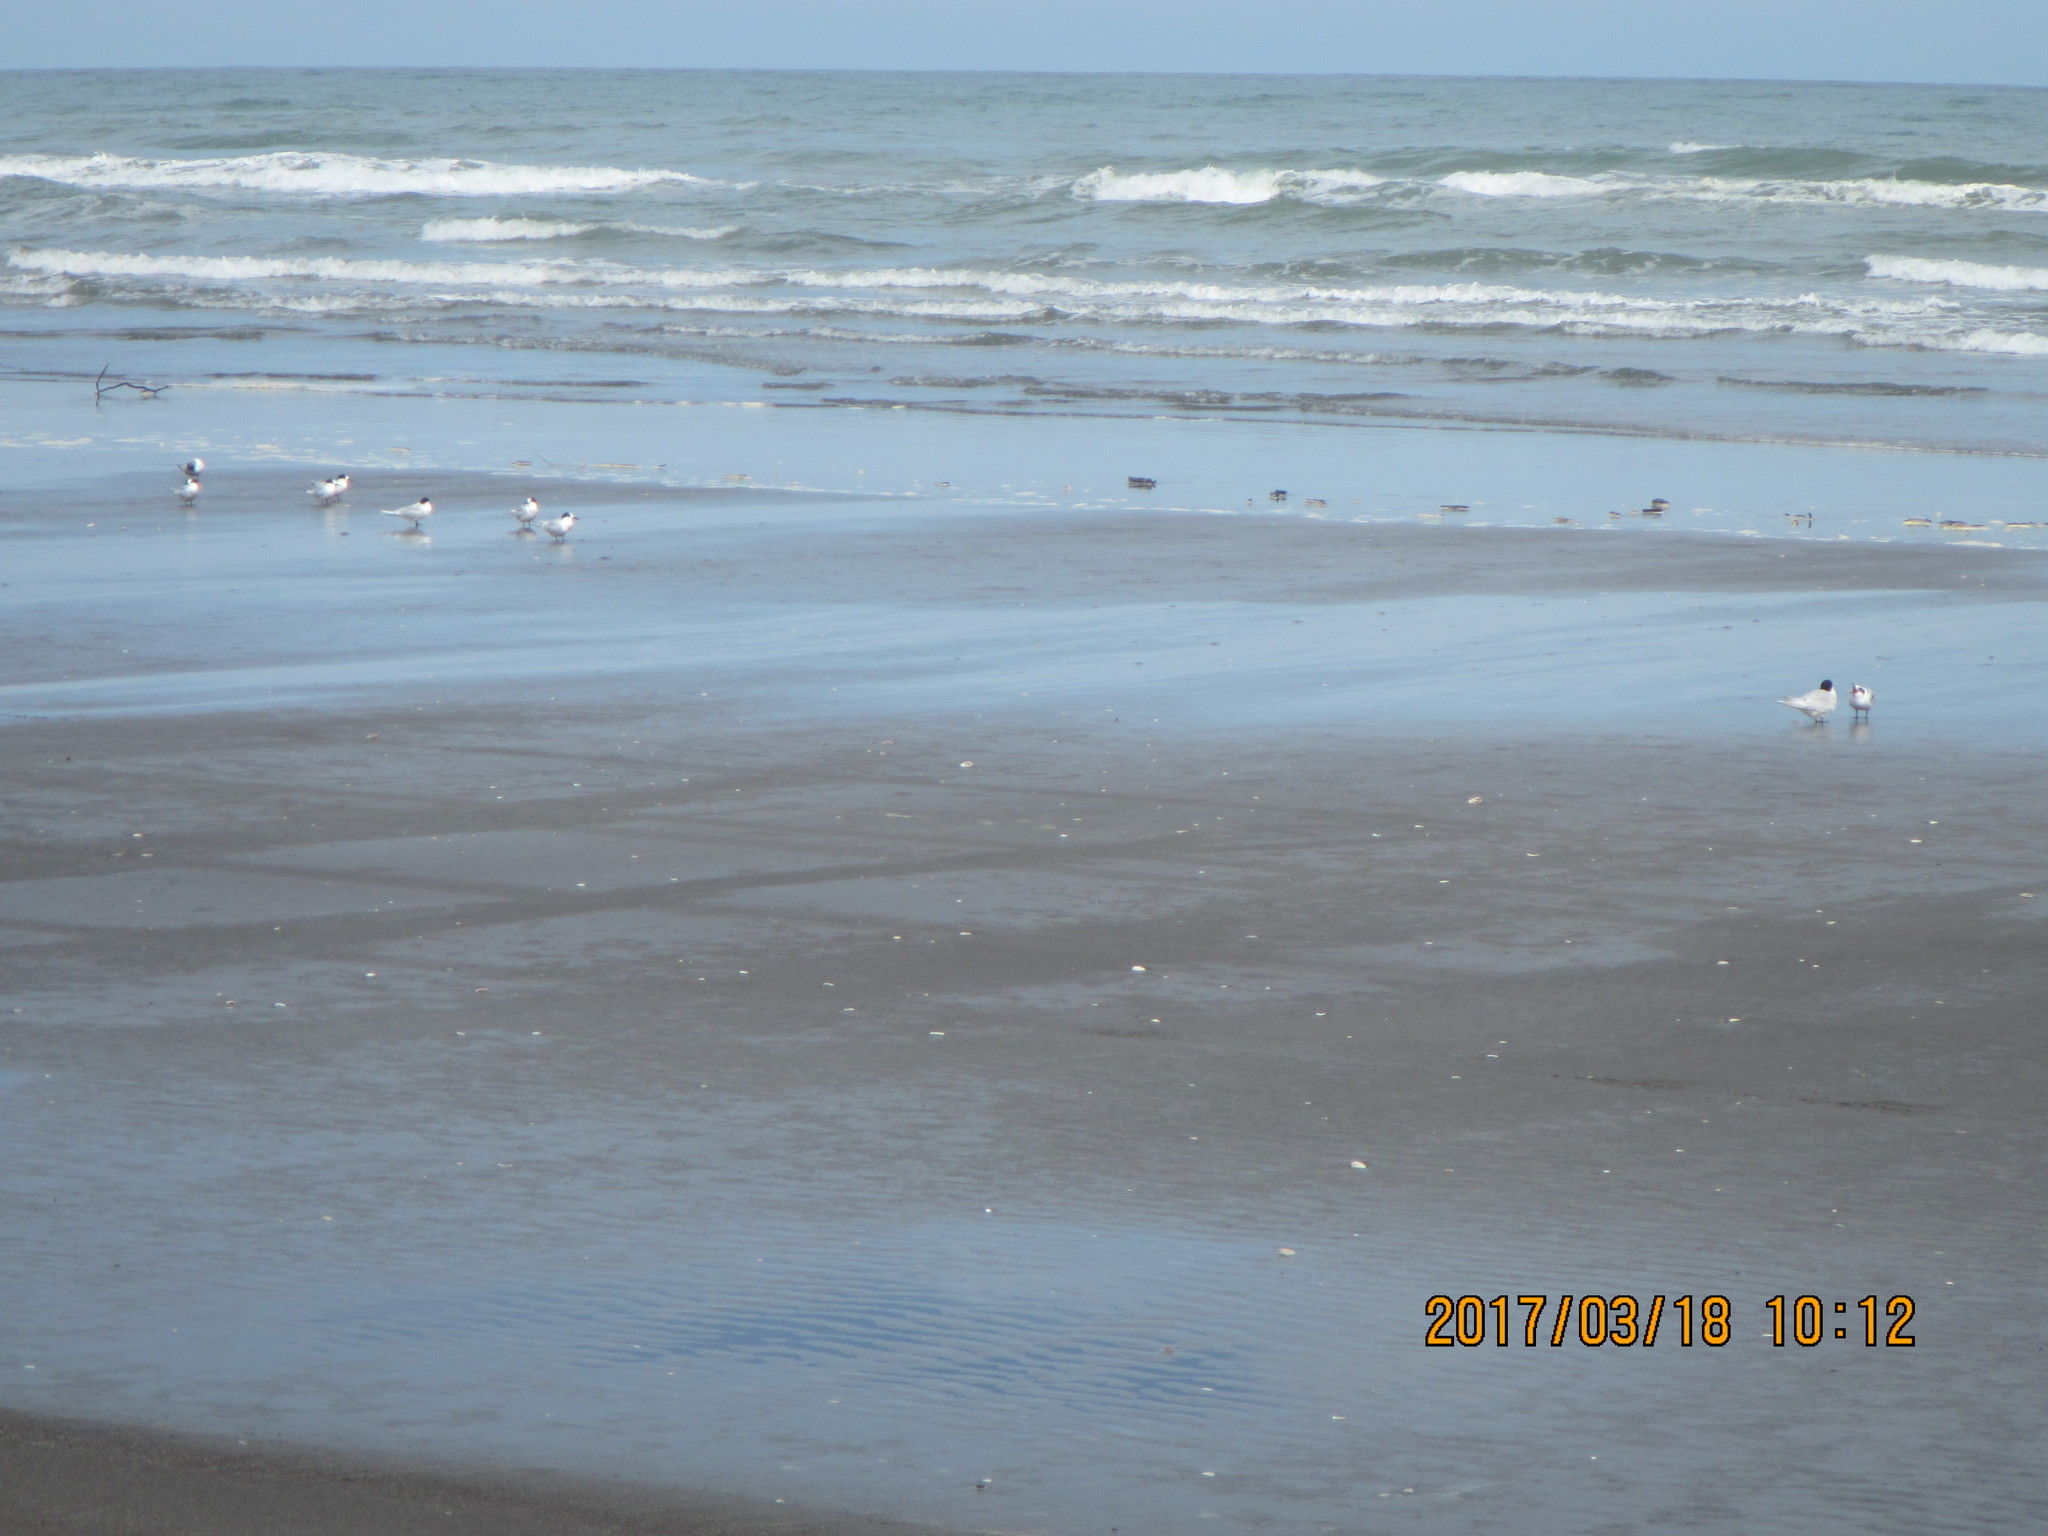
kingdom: Animalia
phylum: Chordata
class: Aves
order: Charadriiformes
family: Laridae
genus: Sterna
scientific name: Sterna striata
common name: White-fronted tern
